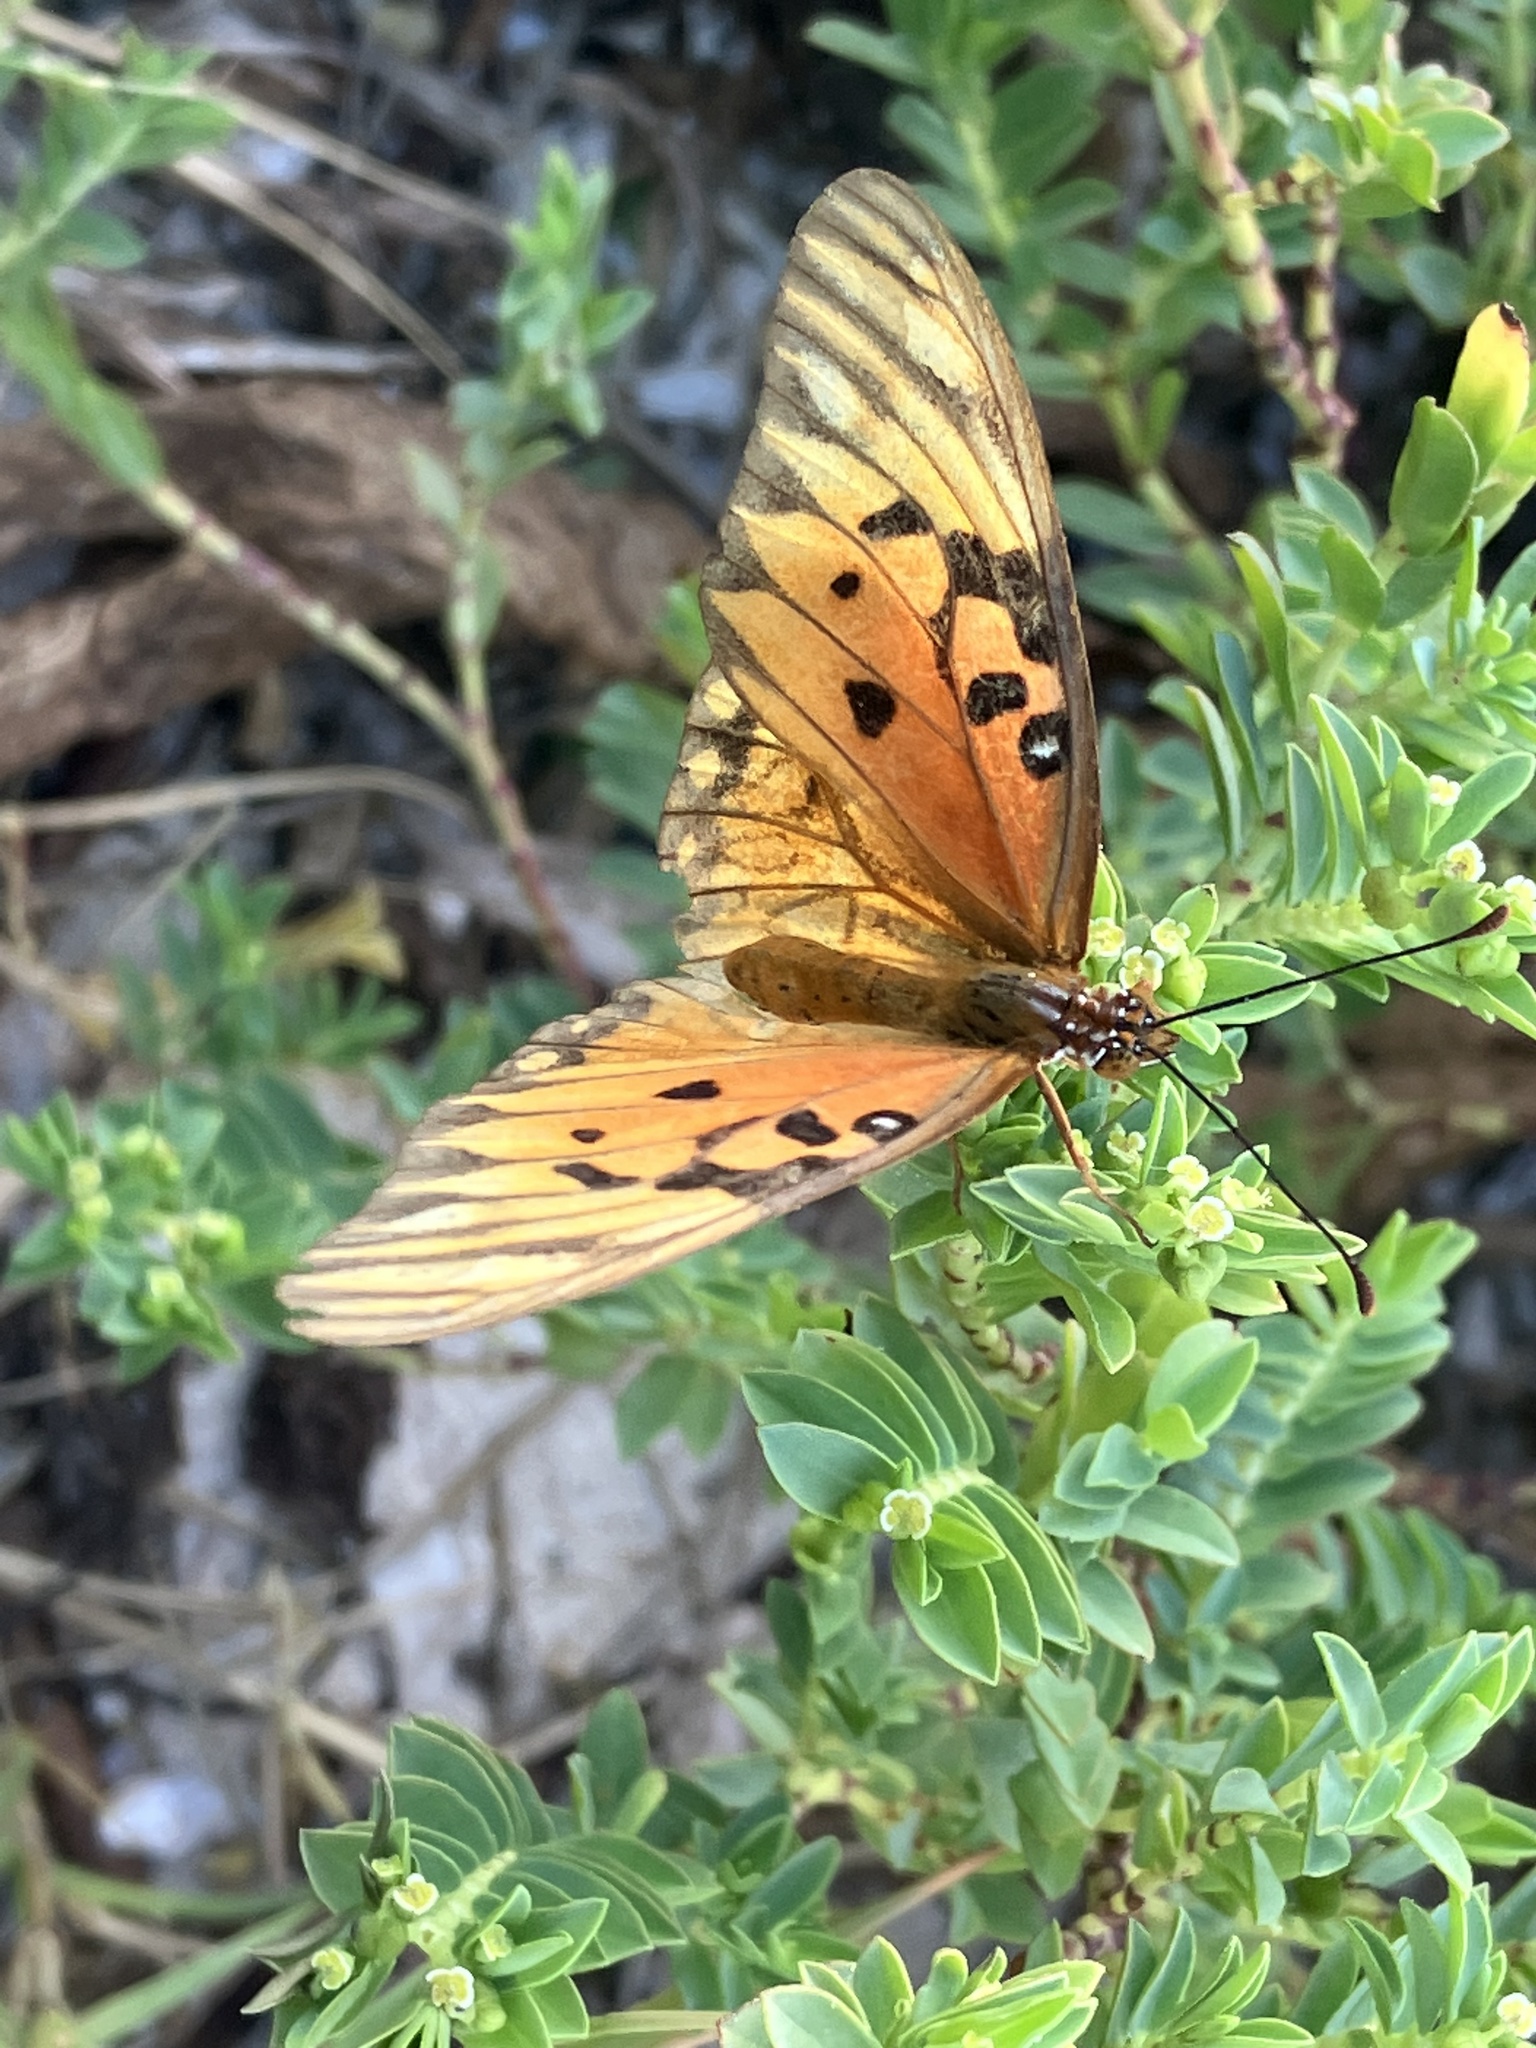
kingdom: Animalia
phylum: Arthropoda
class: Insecta
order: Lepidoptera
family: Nymphalidae
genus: Dione
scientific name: Dione vanillae
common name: Gulf fritillary
